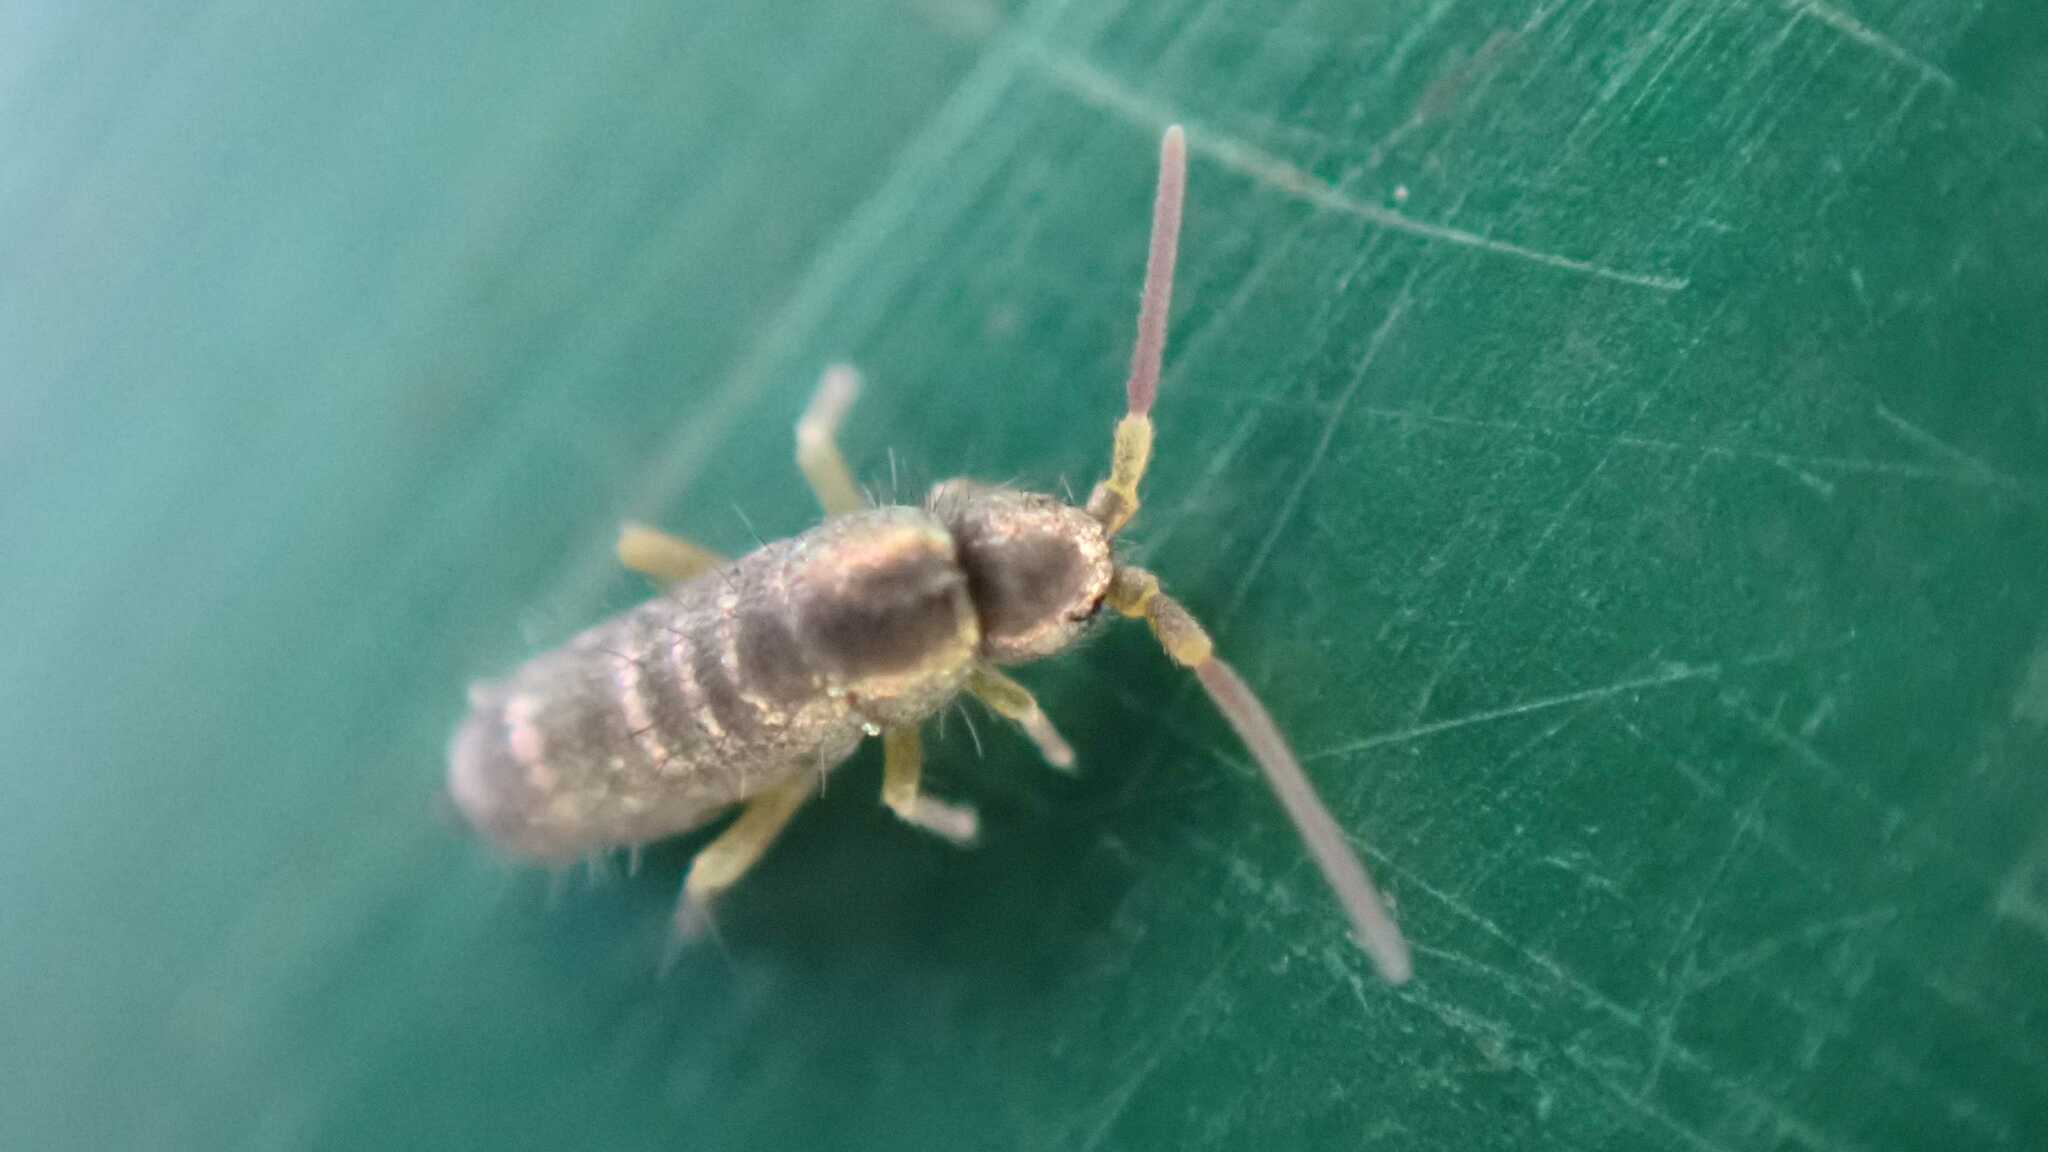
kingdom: Animalia
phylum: Arthropoda
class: Collembola
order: Entomobryomorpha
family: Tomoceridae
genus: Tomocerus
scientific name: Tomocerus vulgaris
